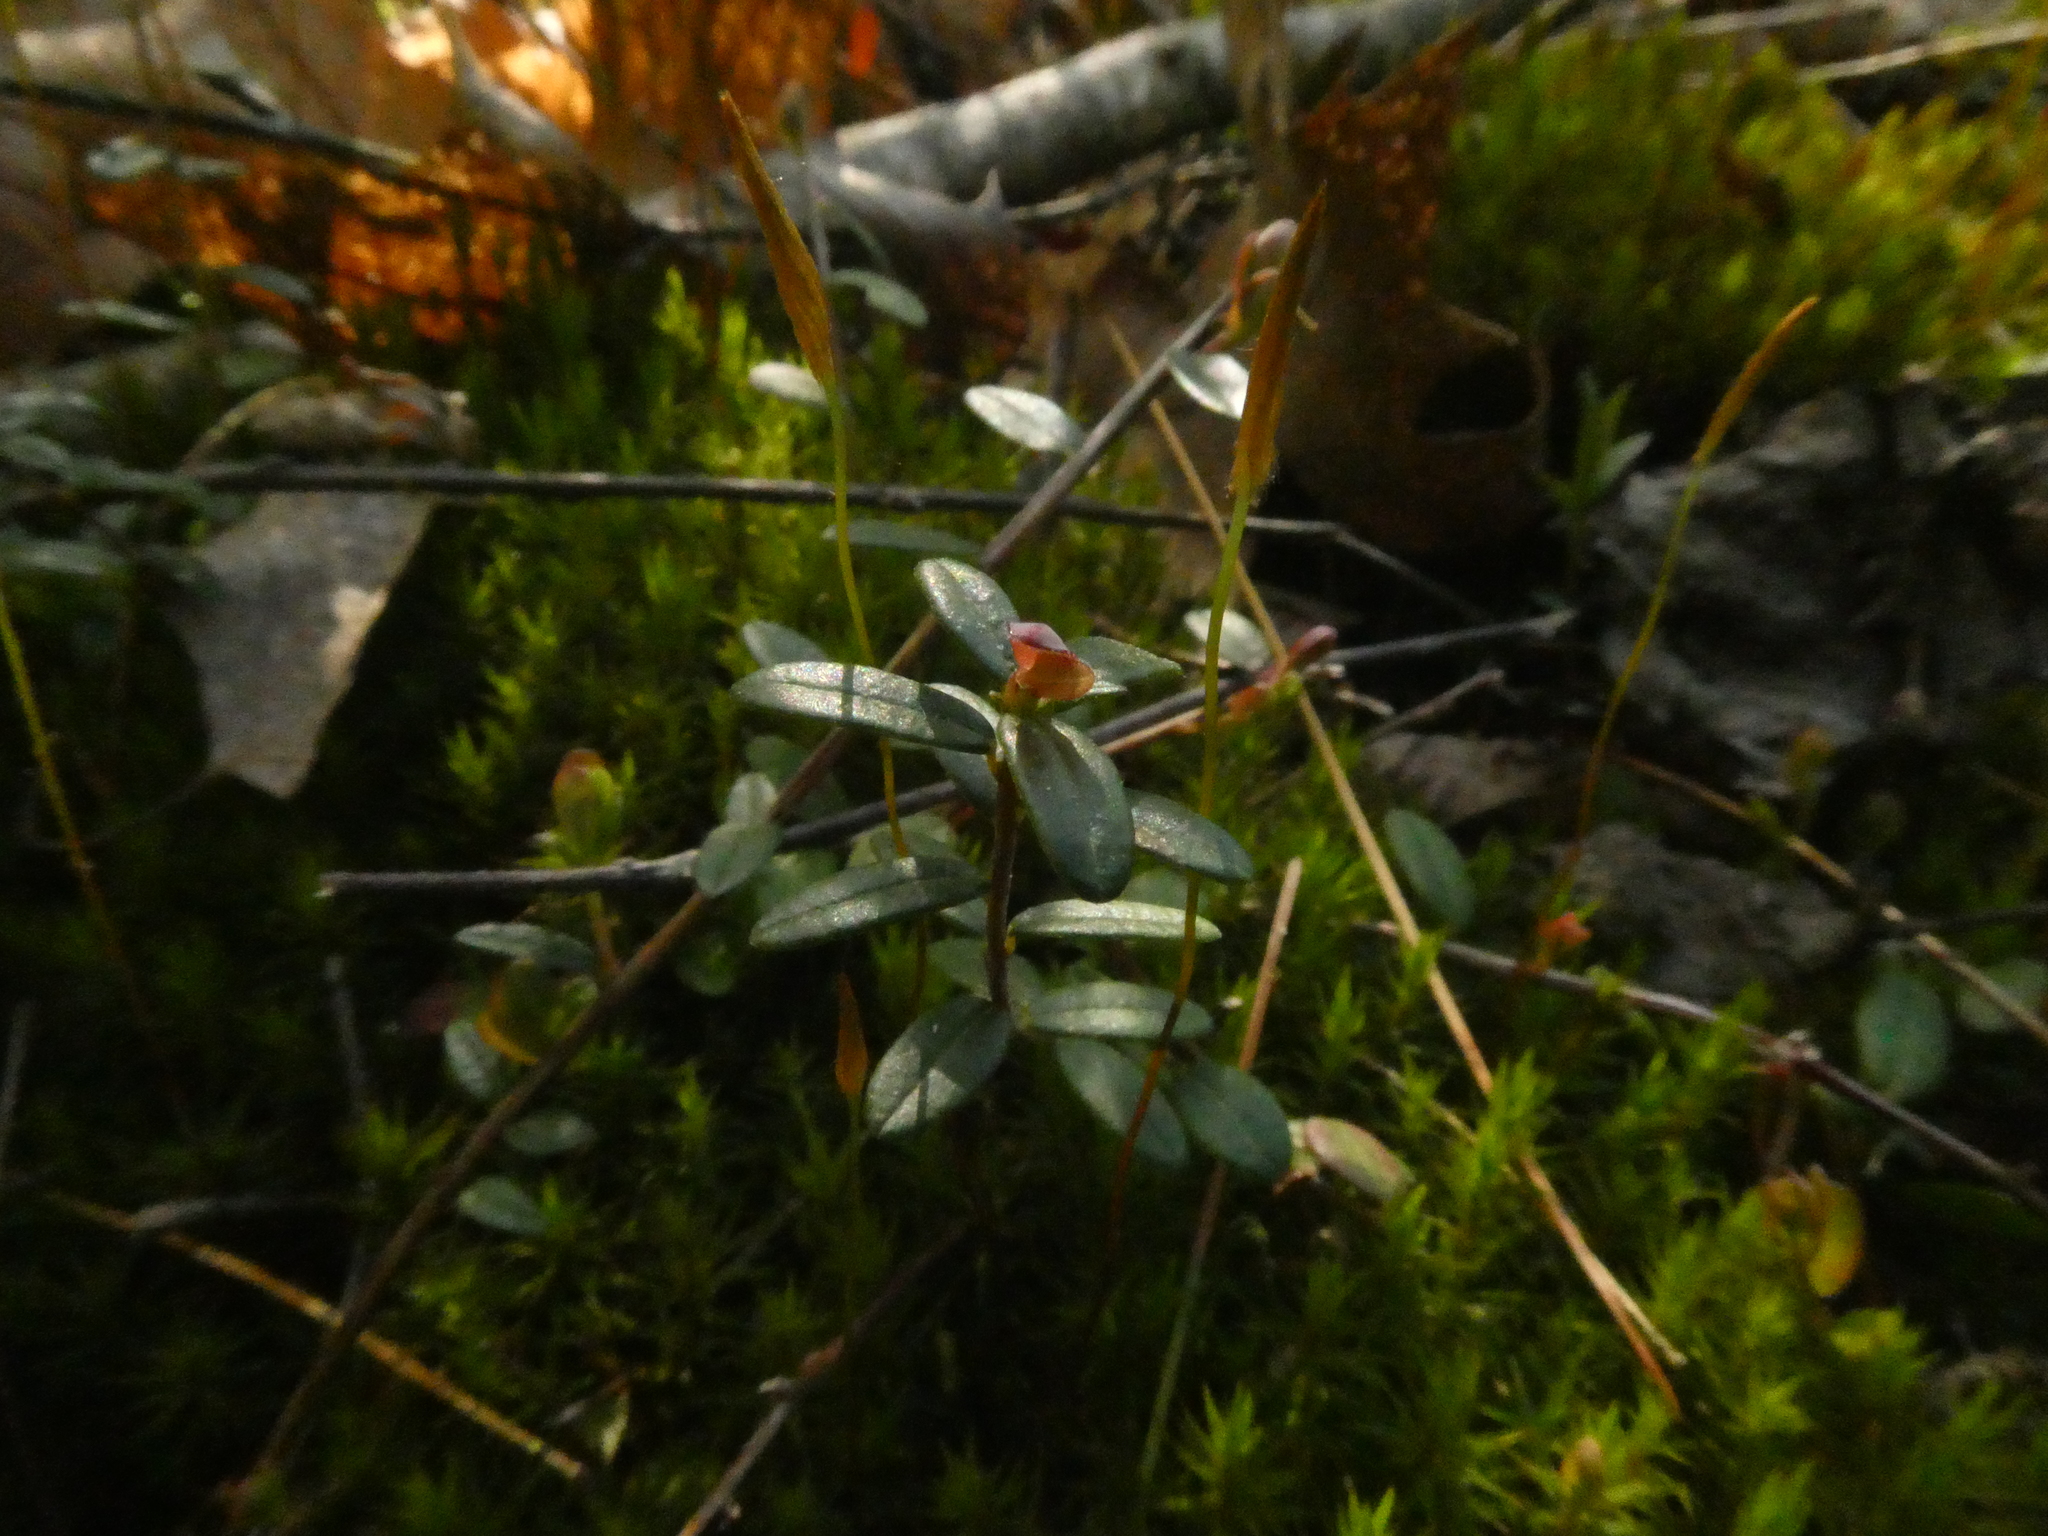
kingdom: Plantae
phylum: Tracheophyta
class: Magnoliopsida
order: Ericales
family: Ericaceae
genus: Vaccinium
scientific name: Vaccinium macrocarpon
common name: American cranberry
